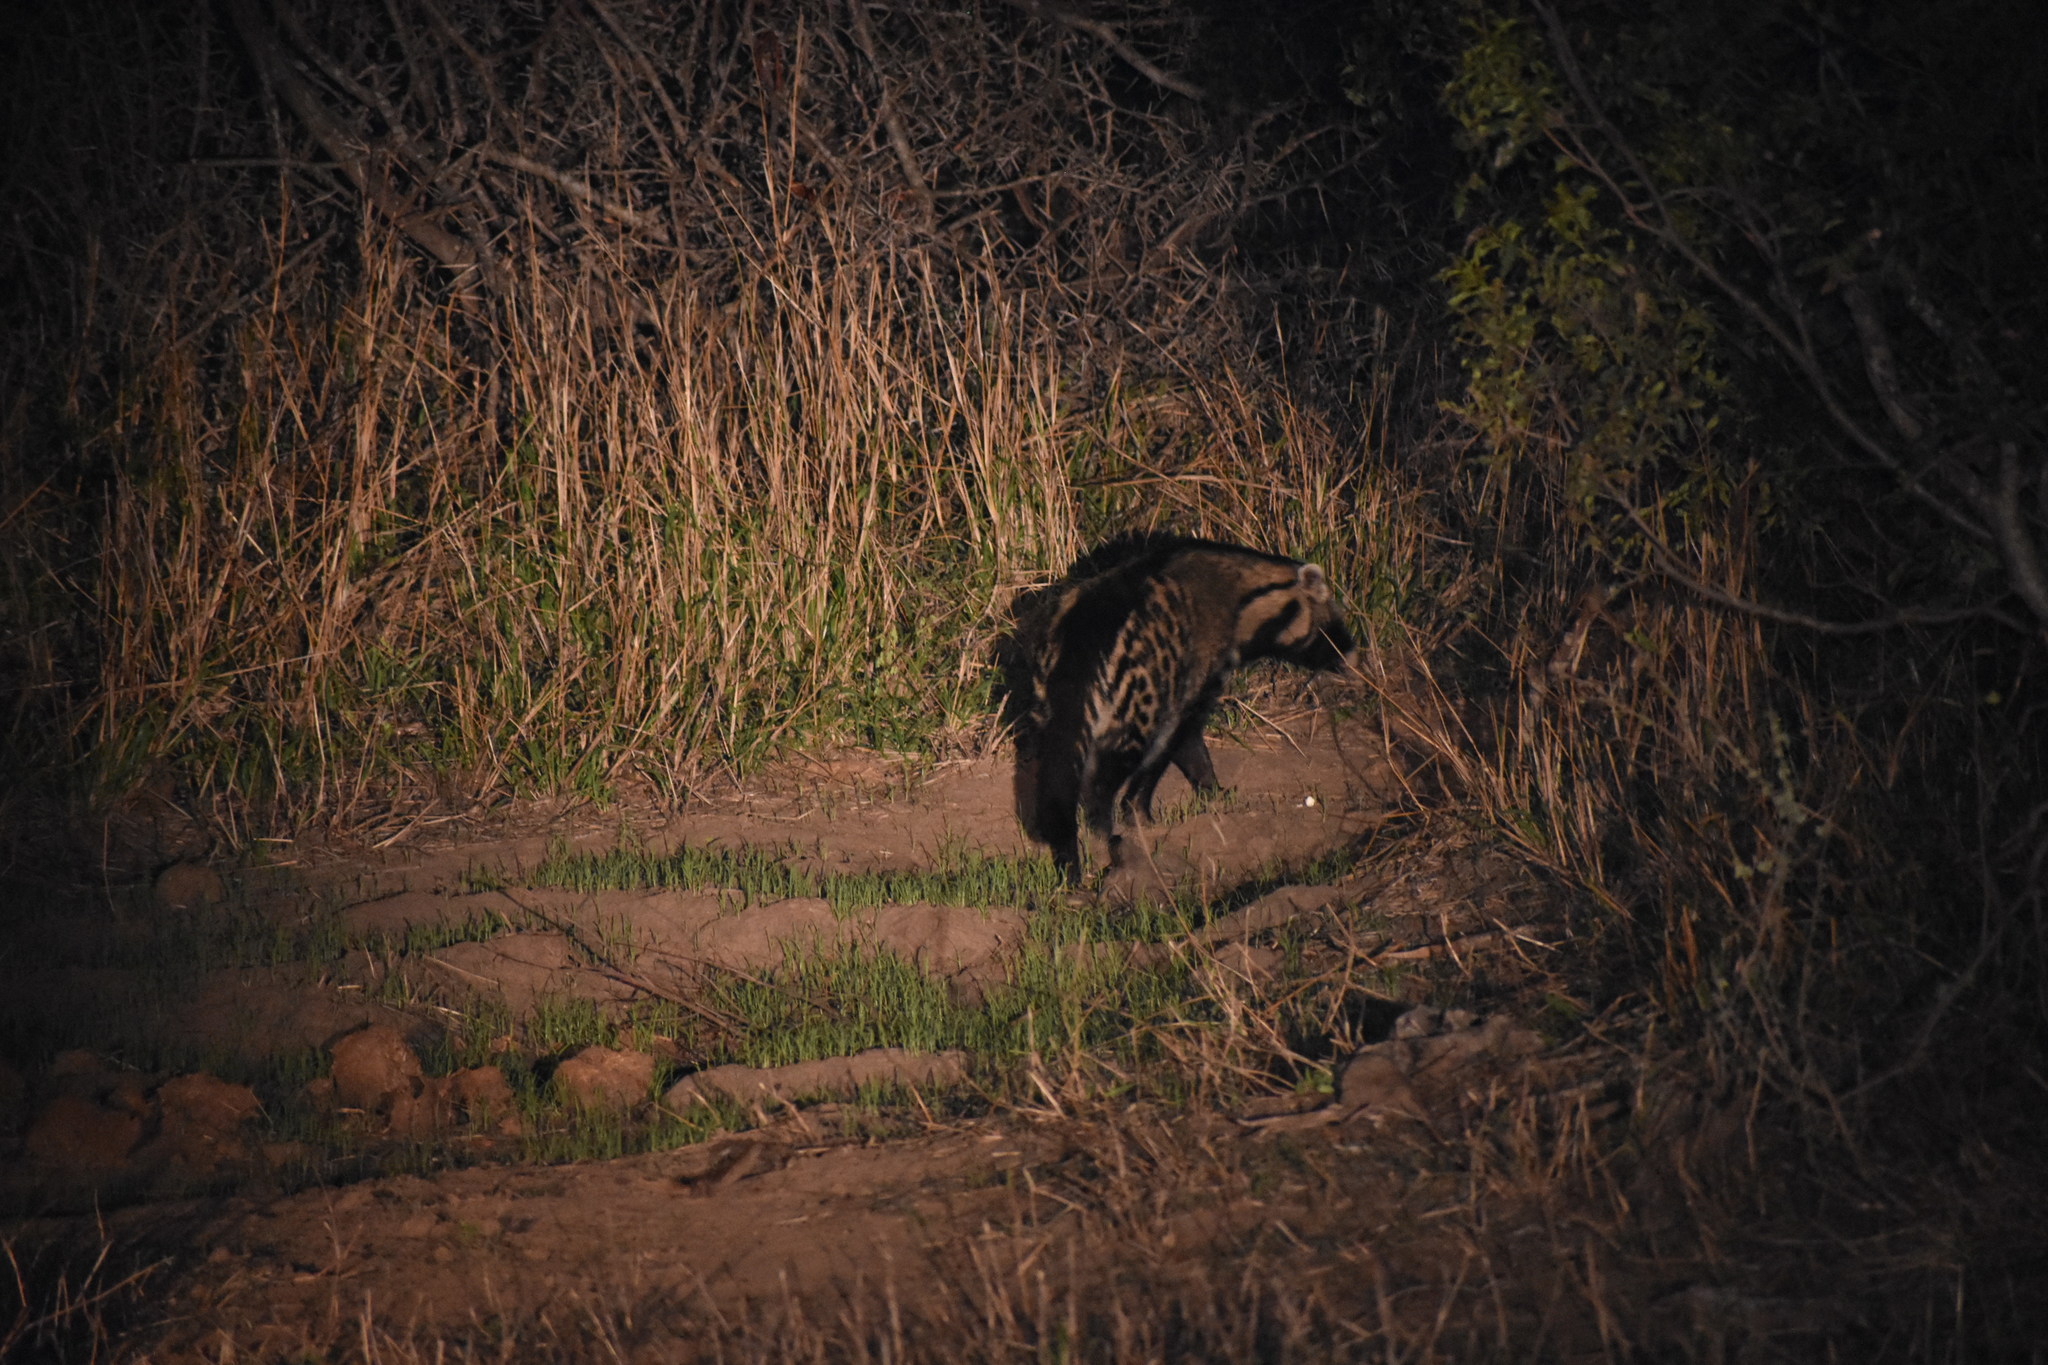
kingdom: Animalia
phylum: Chordata
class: Mammalia
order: Carnivora
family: Viverridae
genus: Civettictis
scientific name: Civettictis civetta
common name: African civet
